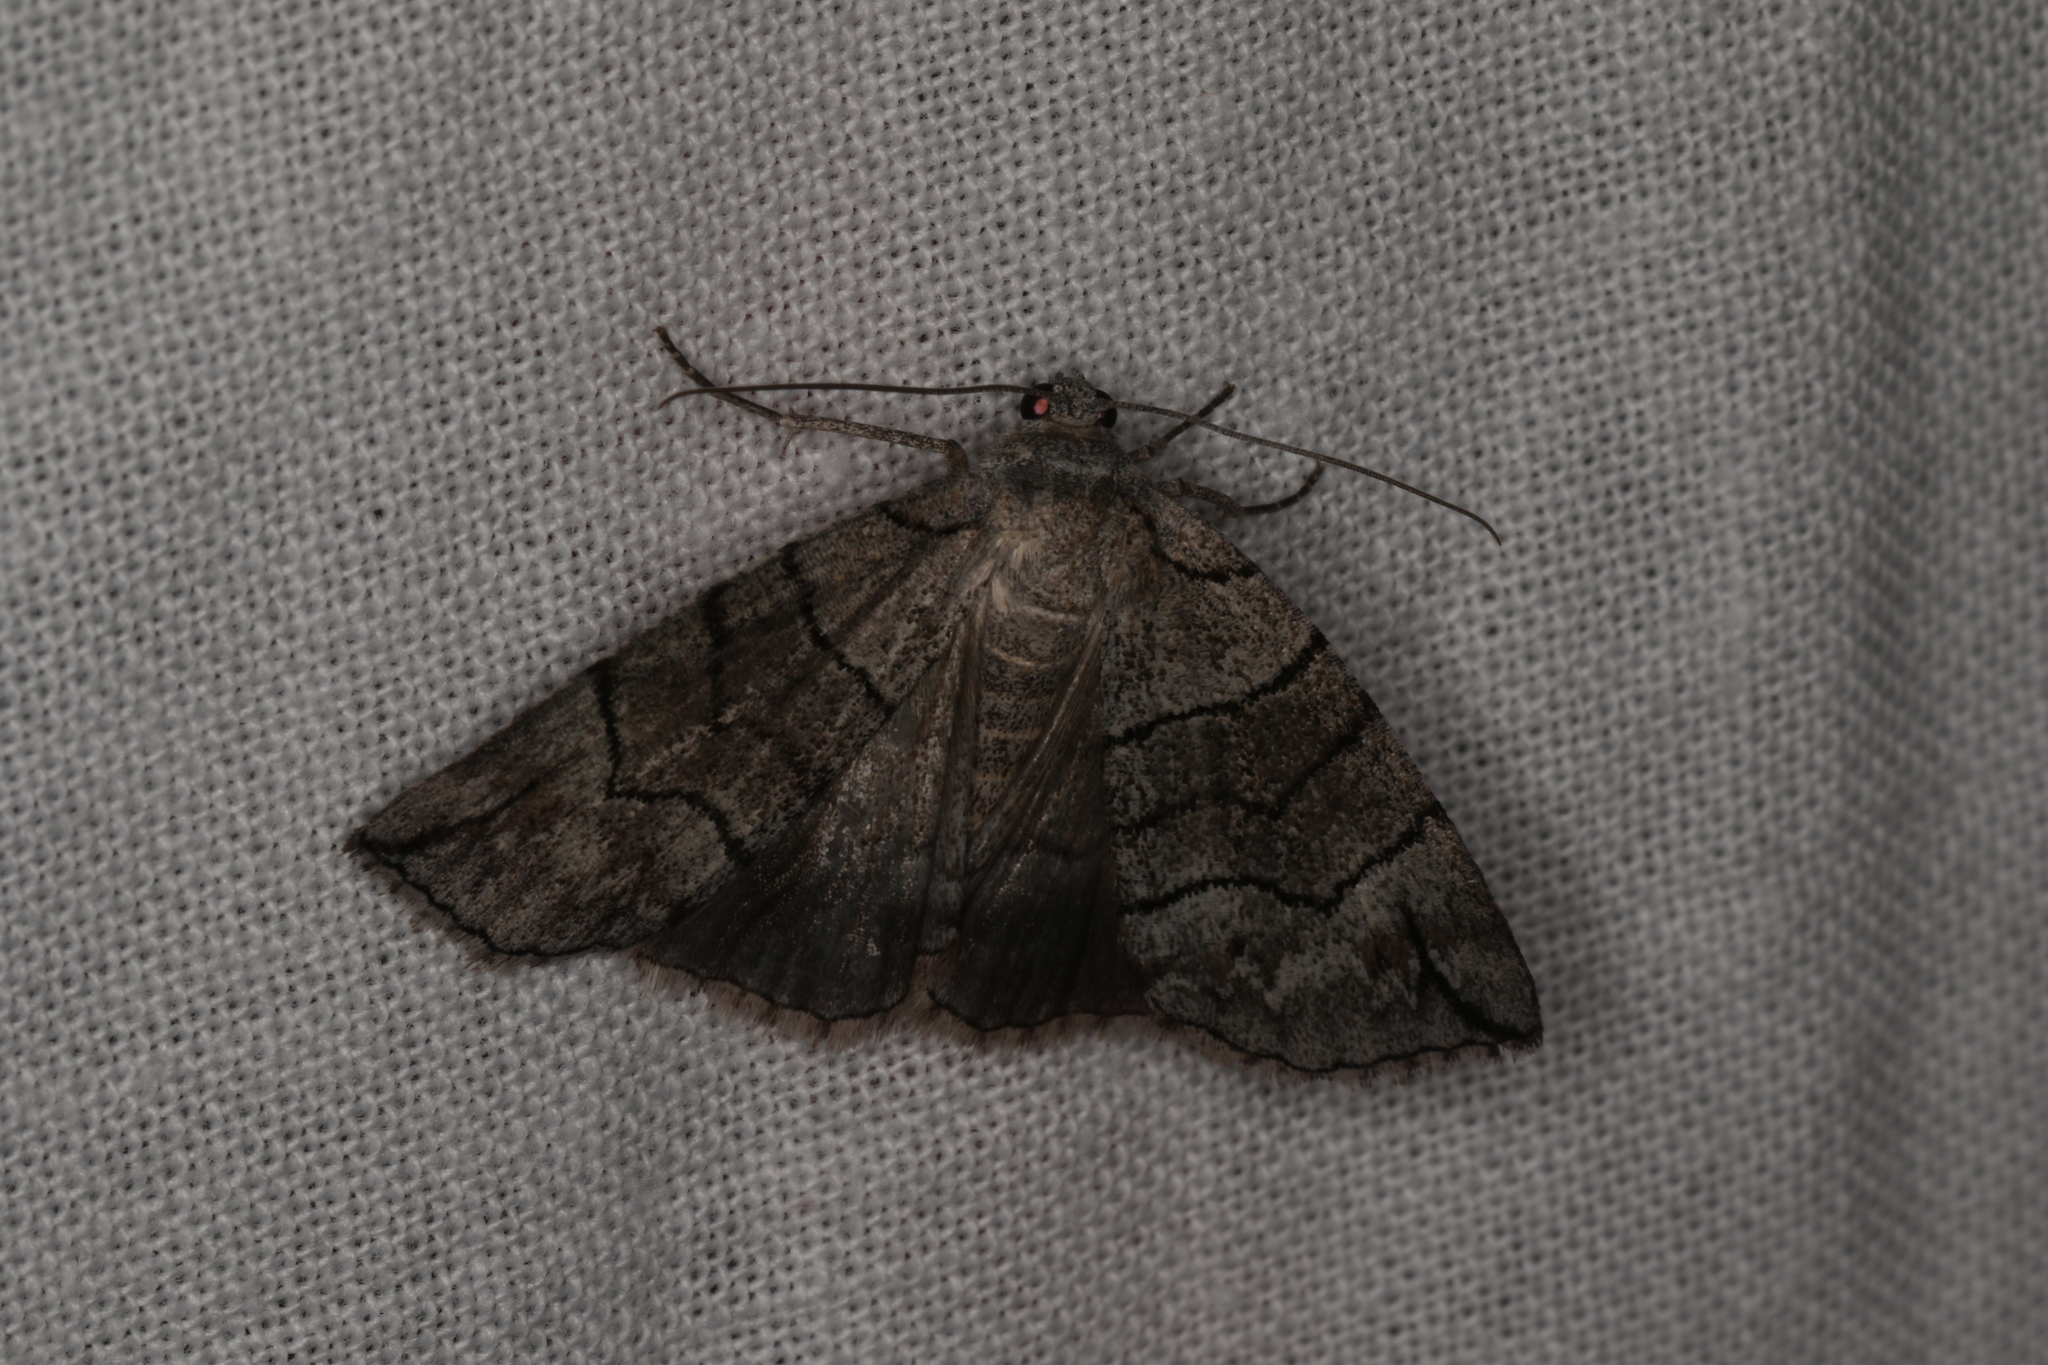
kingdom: Animalia
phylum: Arthropoda
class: Insecta
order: Lepidoptera
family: Geometridae
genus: Dysbatus
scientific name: Dysbatus stenodesma
